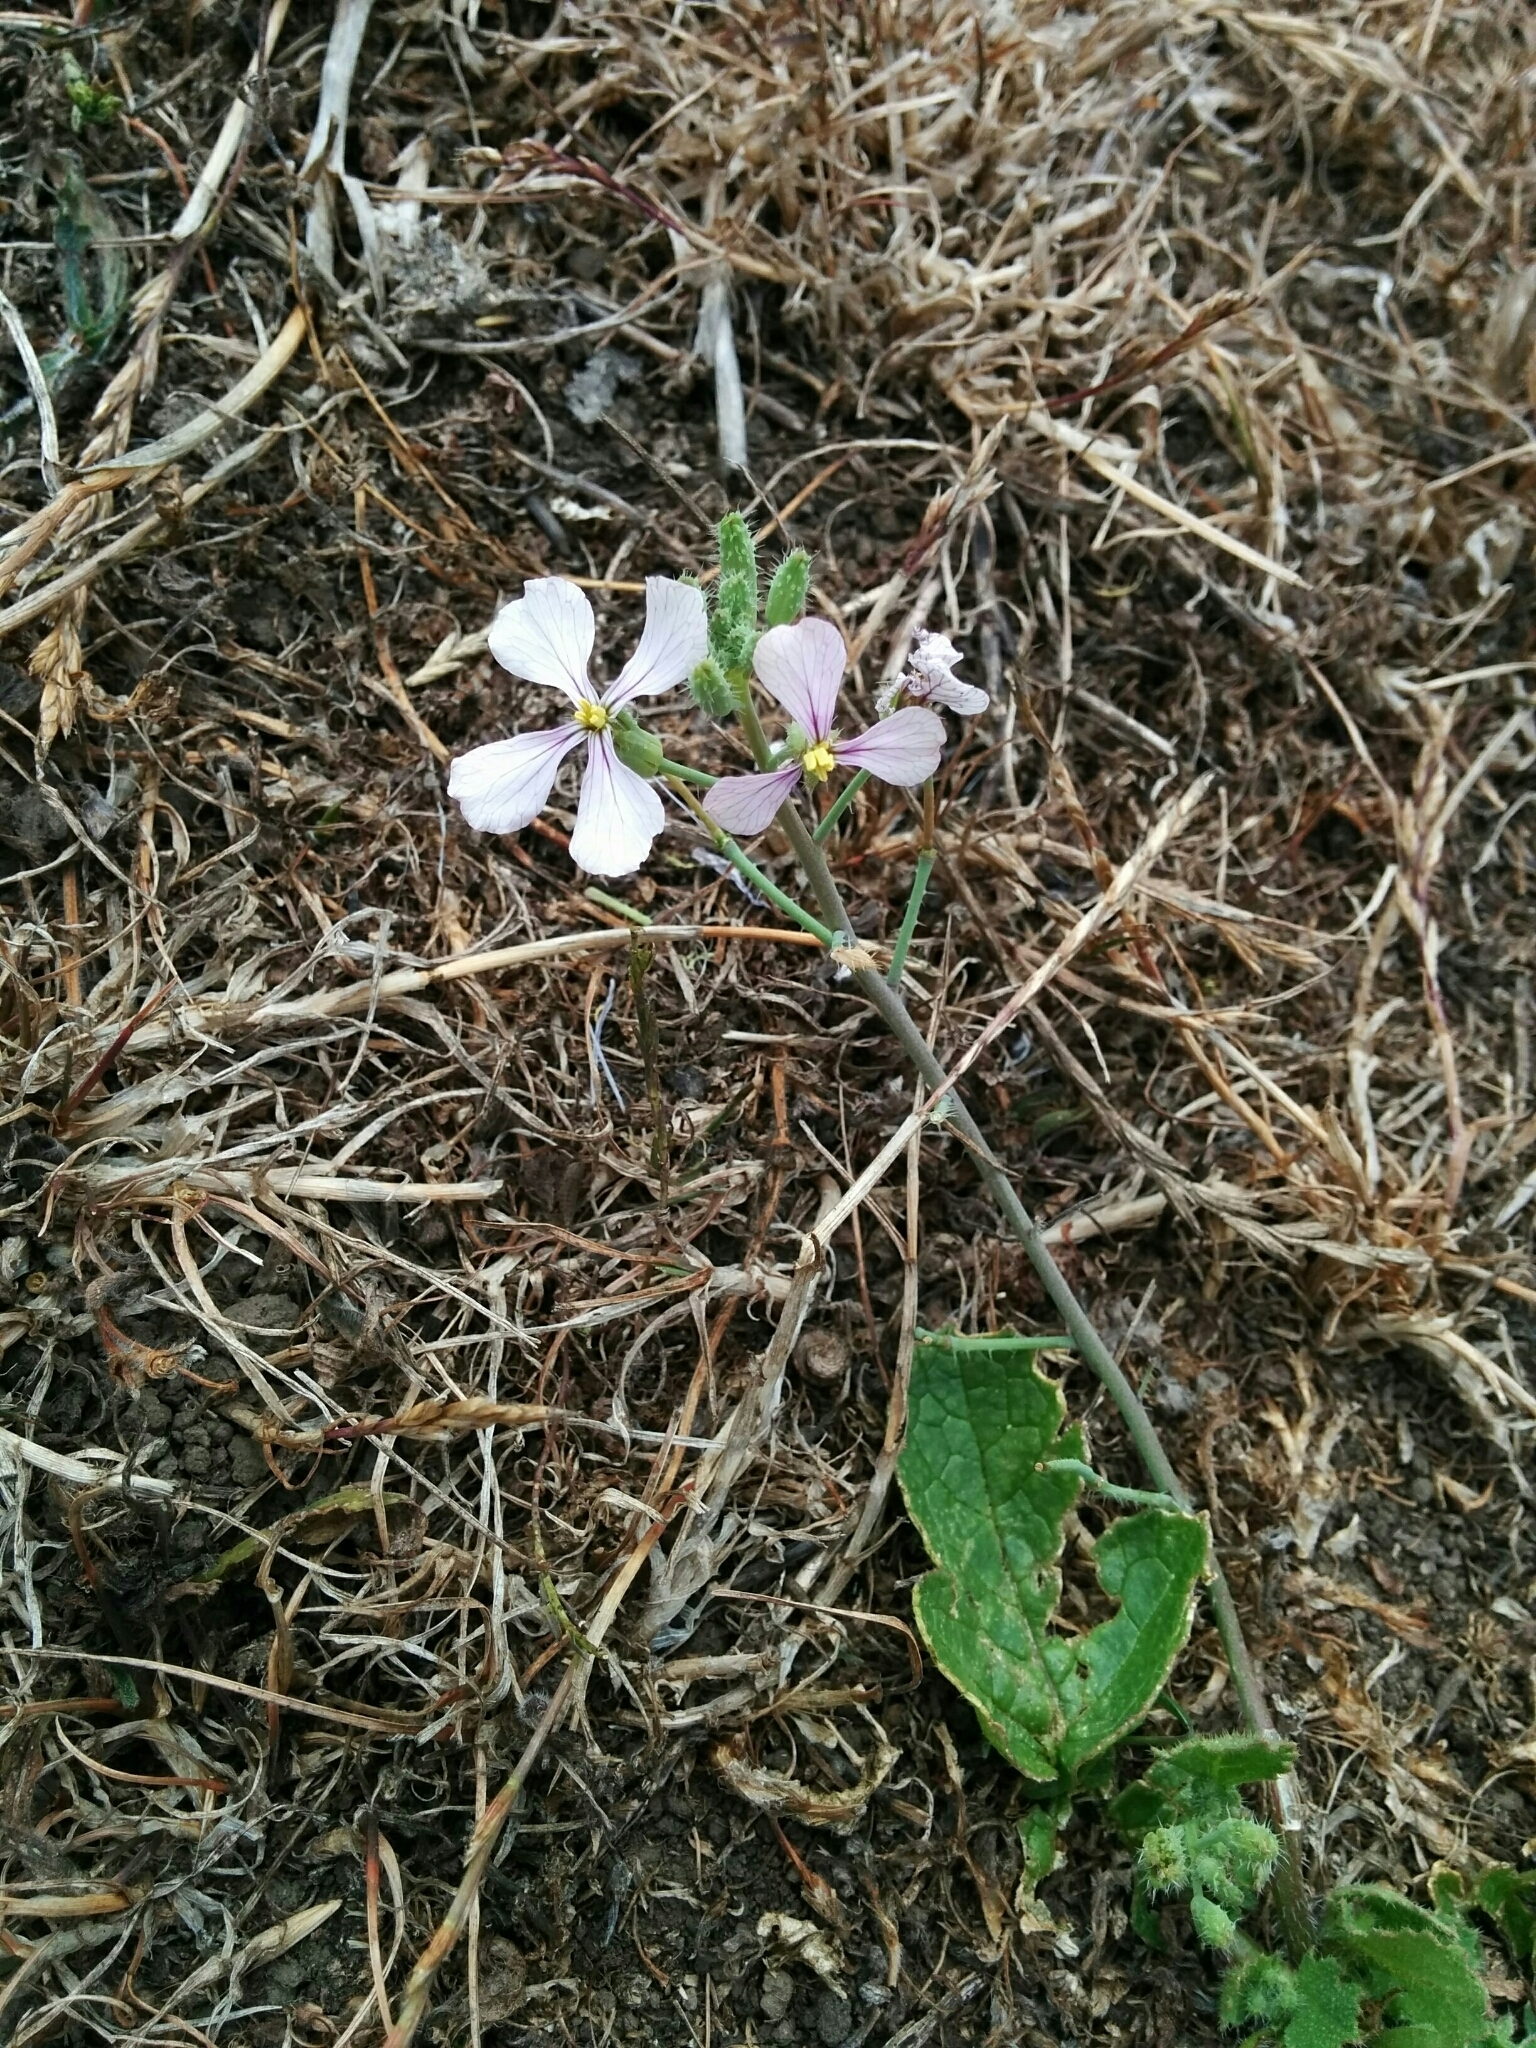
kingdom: Plantae
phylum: Tracheophyta
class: Magnoliopsida
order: Brassicales
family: Brassicaceae
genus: Raphanus
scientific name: Raphanus sativus
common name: Cultivated radish
